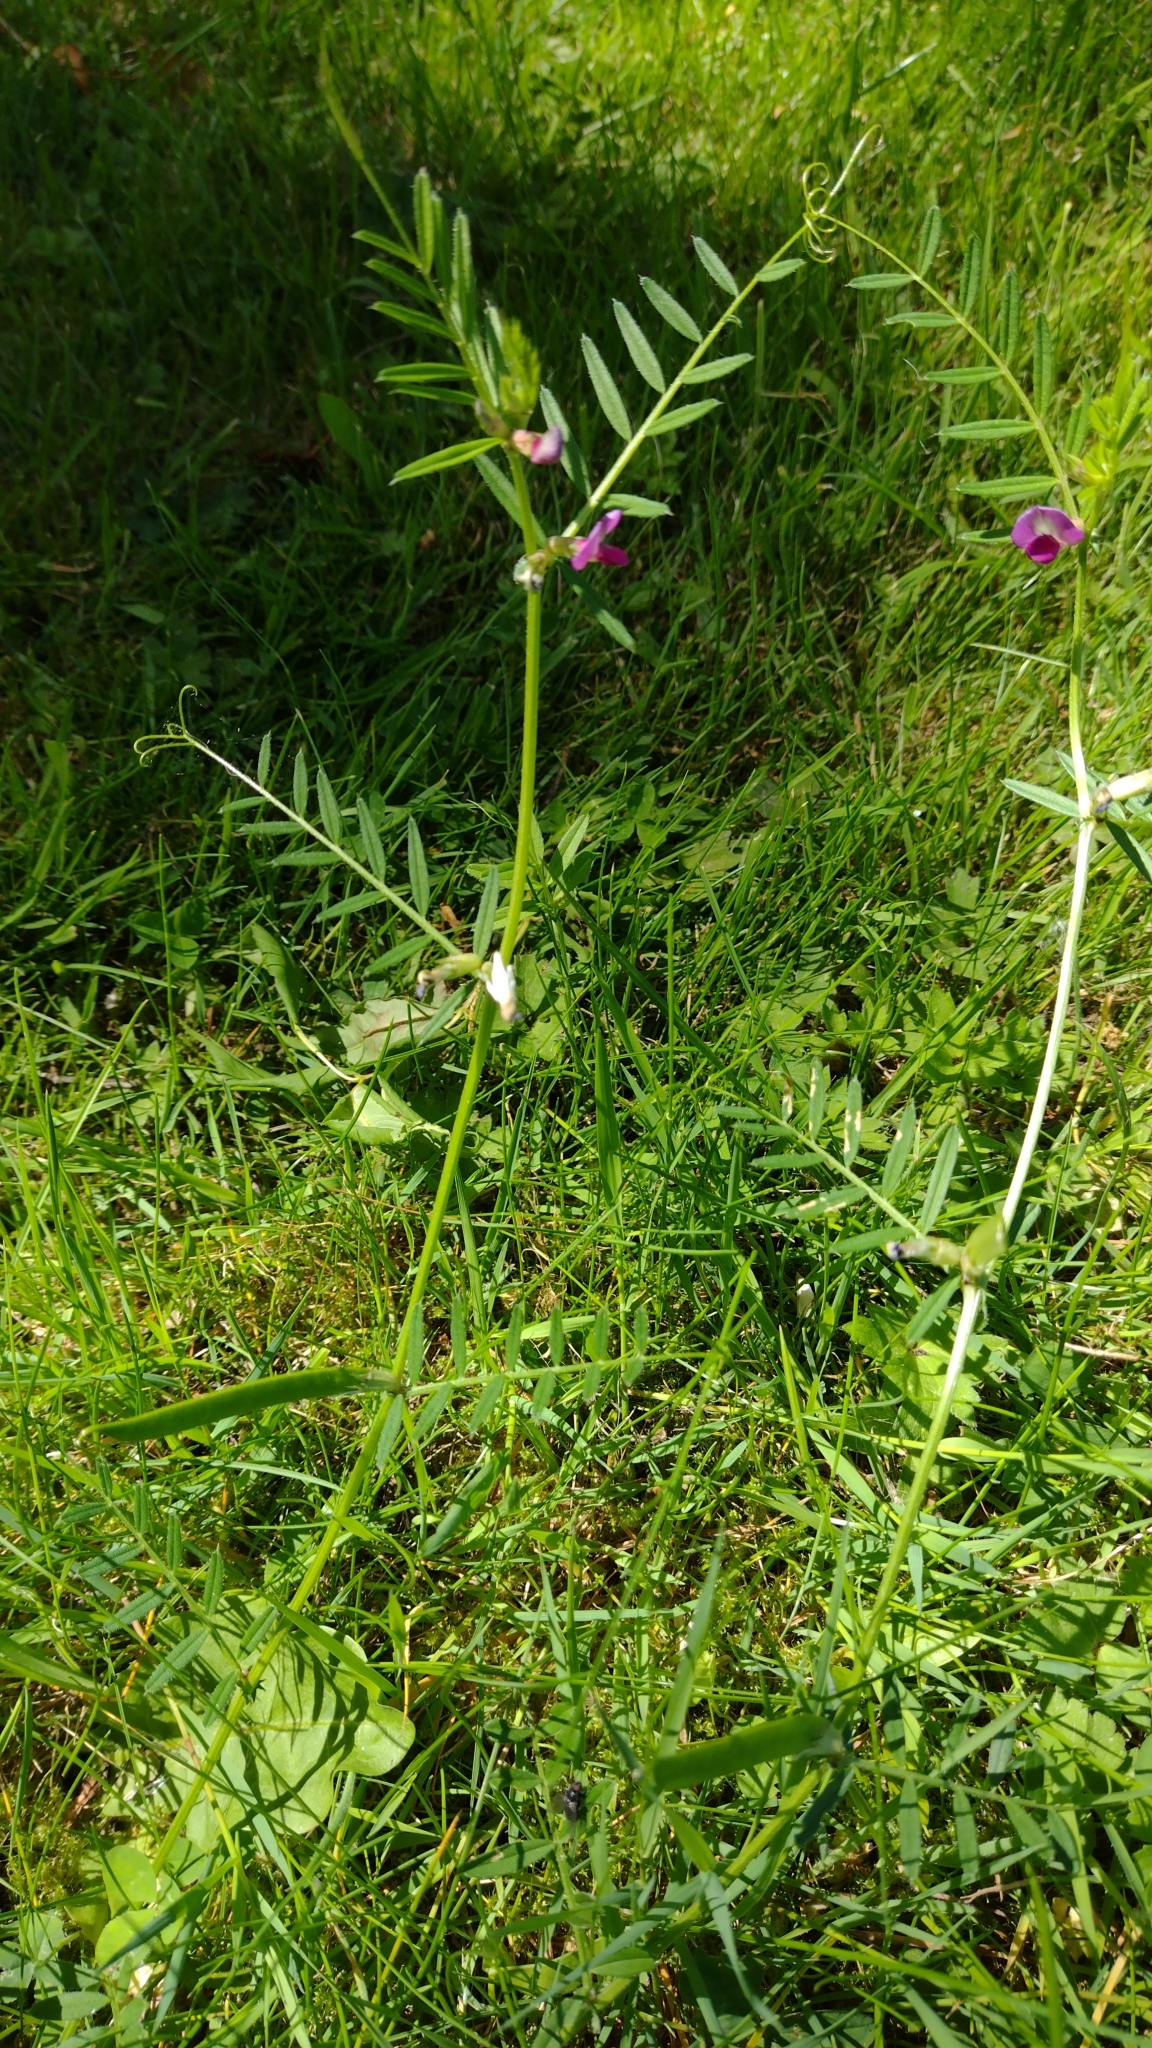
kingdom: Plantae
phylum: Tracheophyta
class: Magnoliopsida
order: Fabales
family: Fabaceae
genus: Vicia
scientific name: Vicia sativa
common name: Garden vetch
